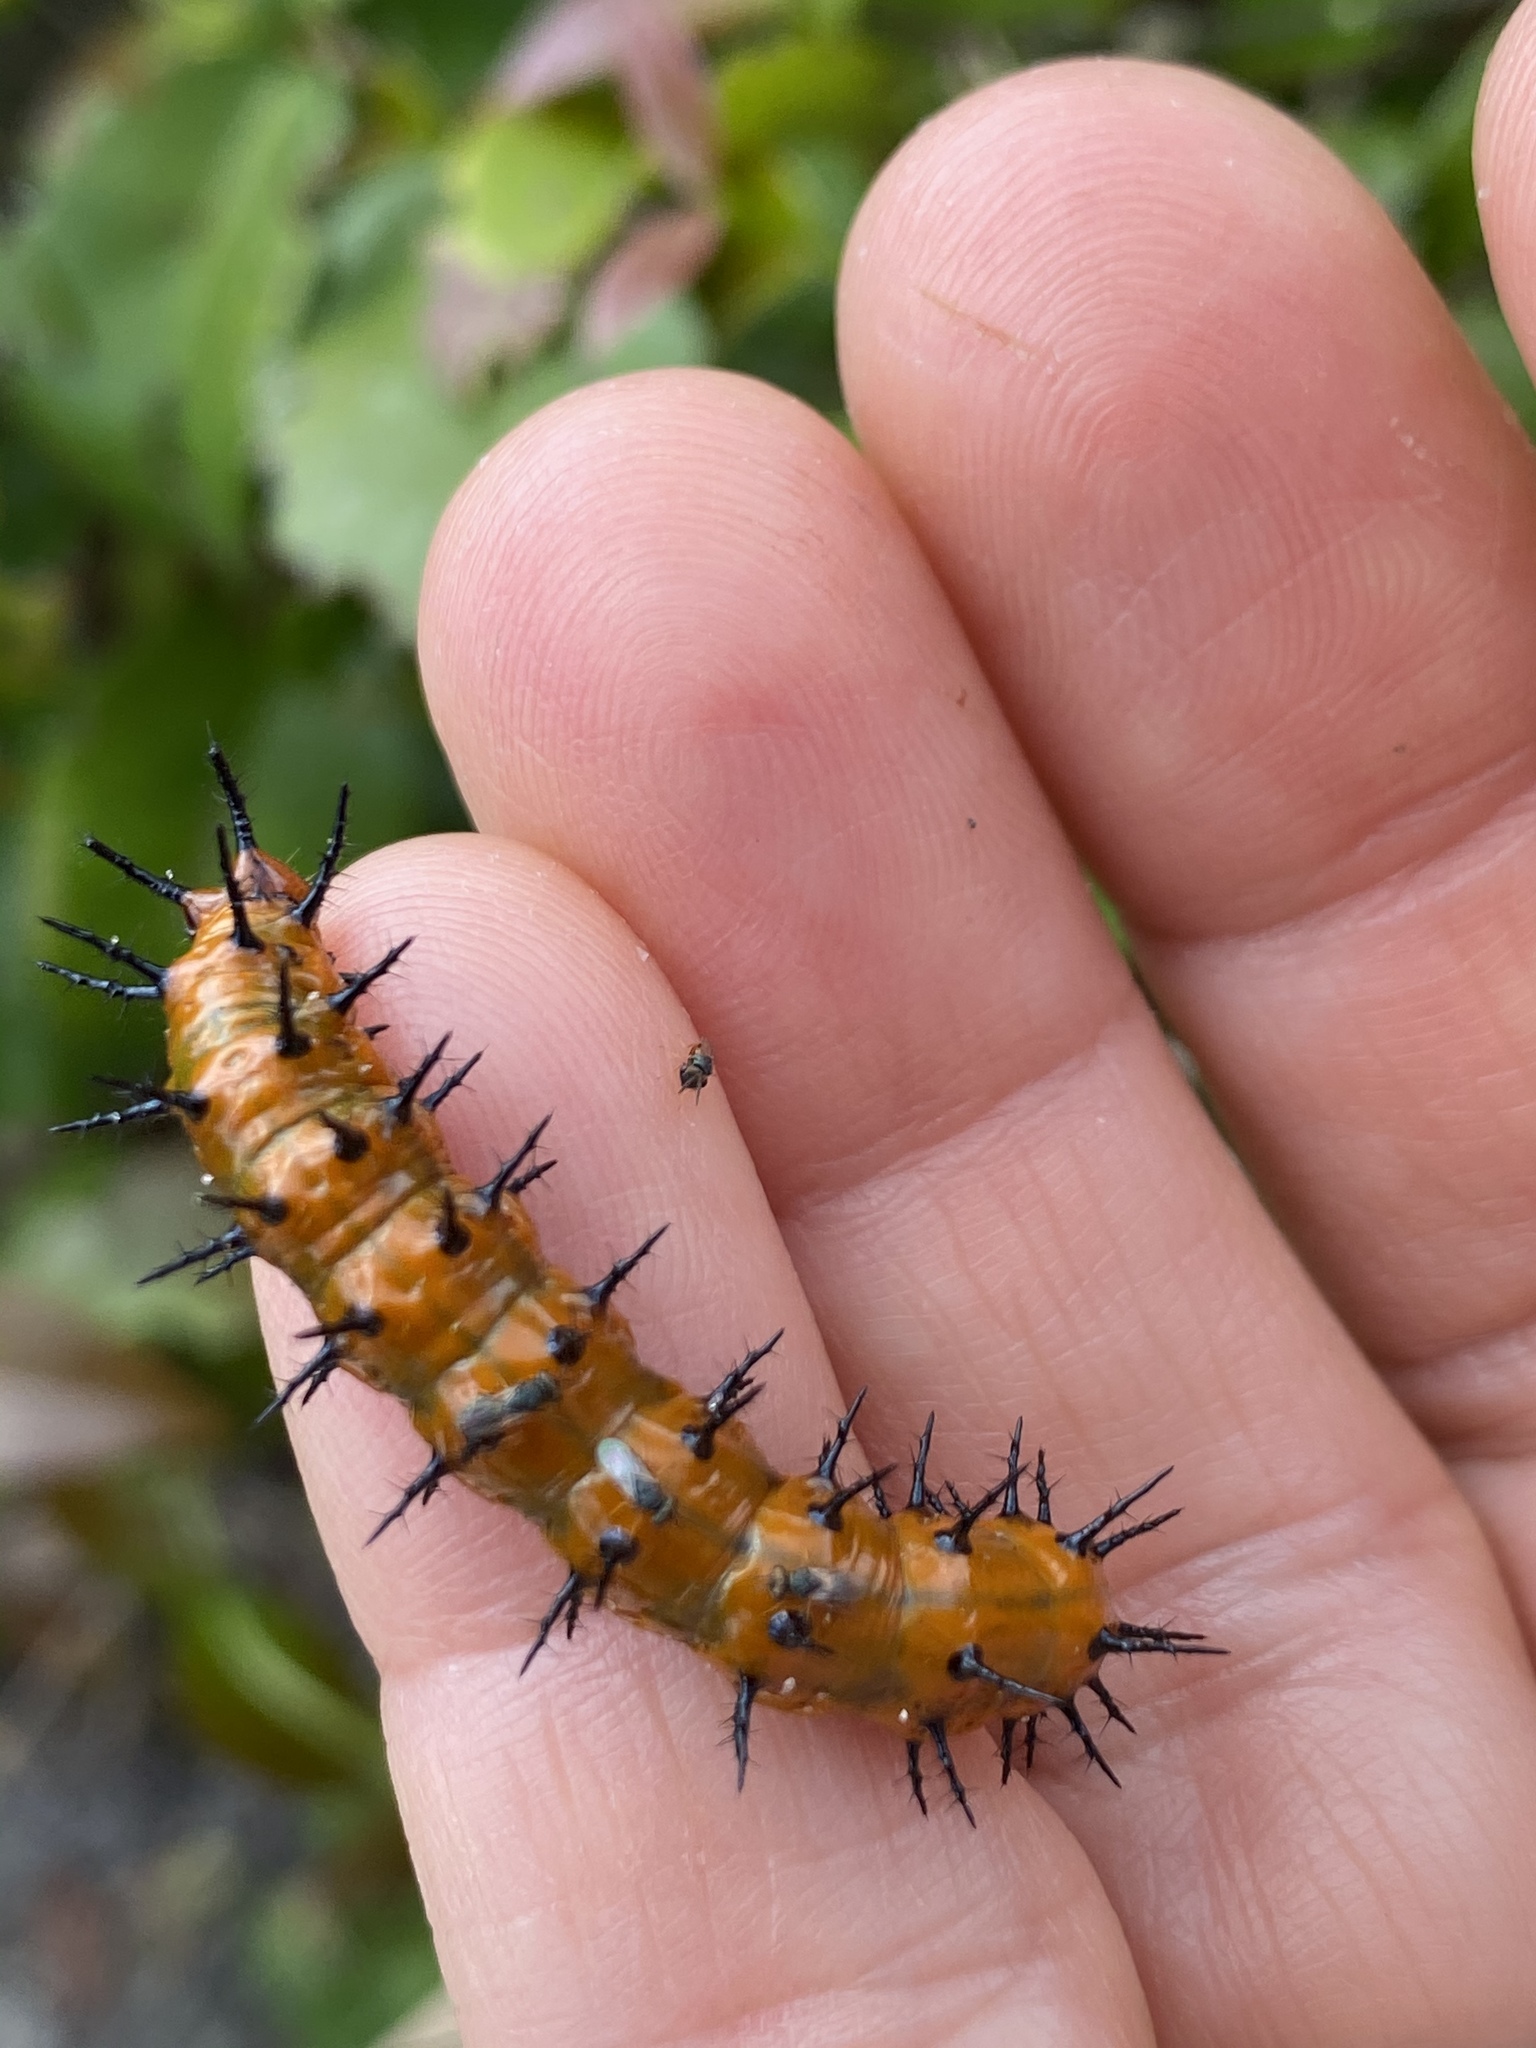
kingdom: Animalia
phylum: Arthropoda
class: Insecta
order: Lepidoptera
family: Nymphalidae
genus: Dione
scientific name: Dione vanillae
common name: Gulf fritillary
